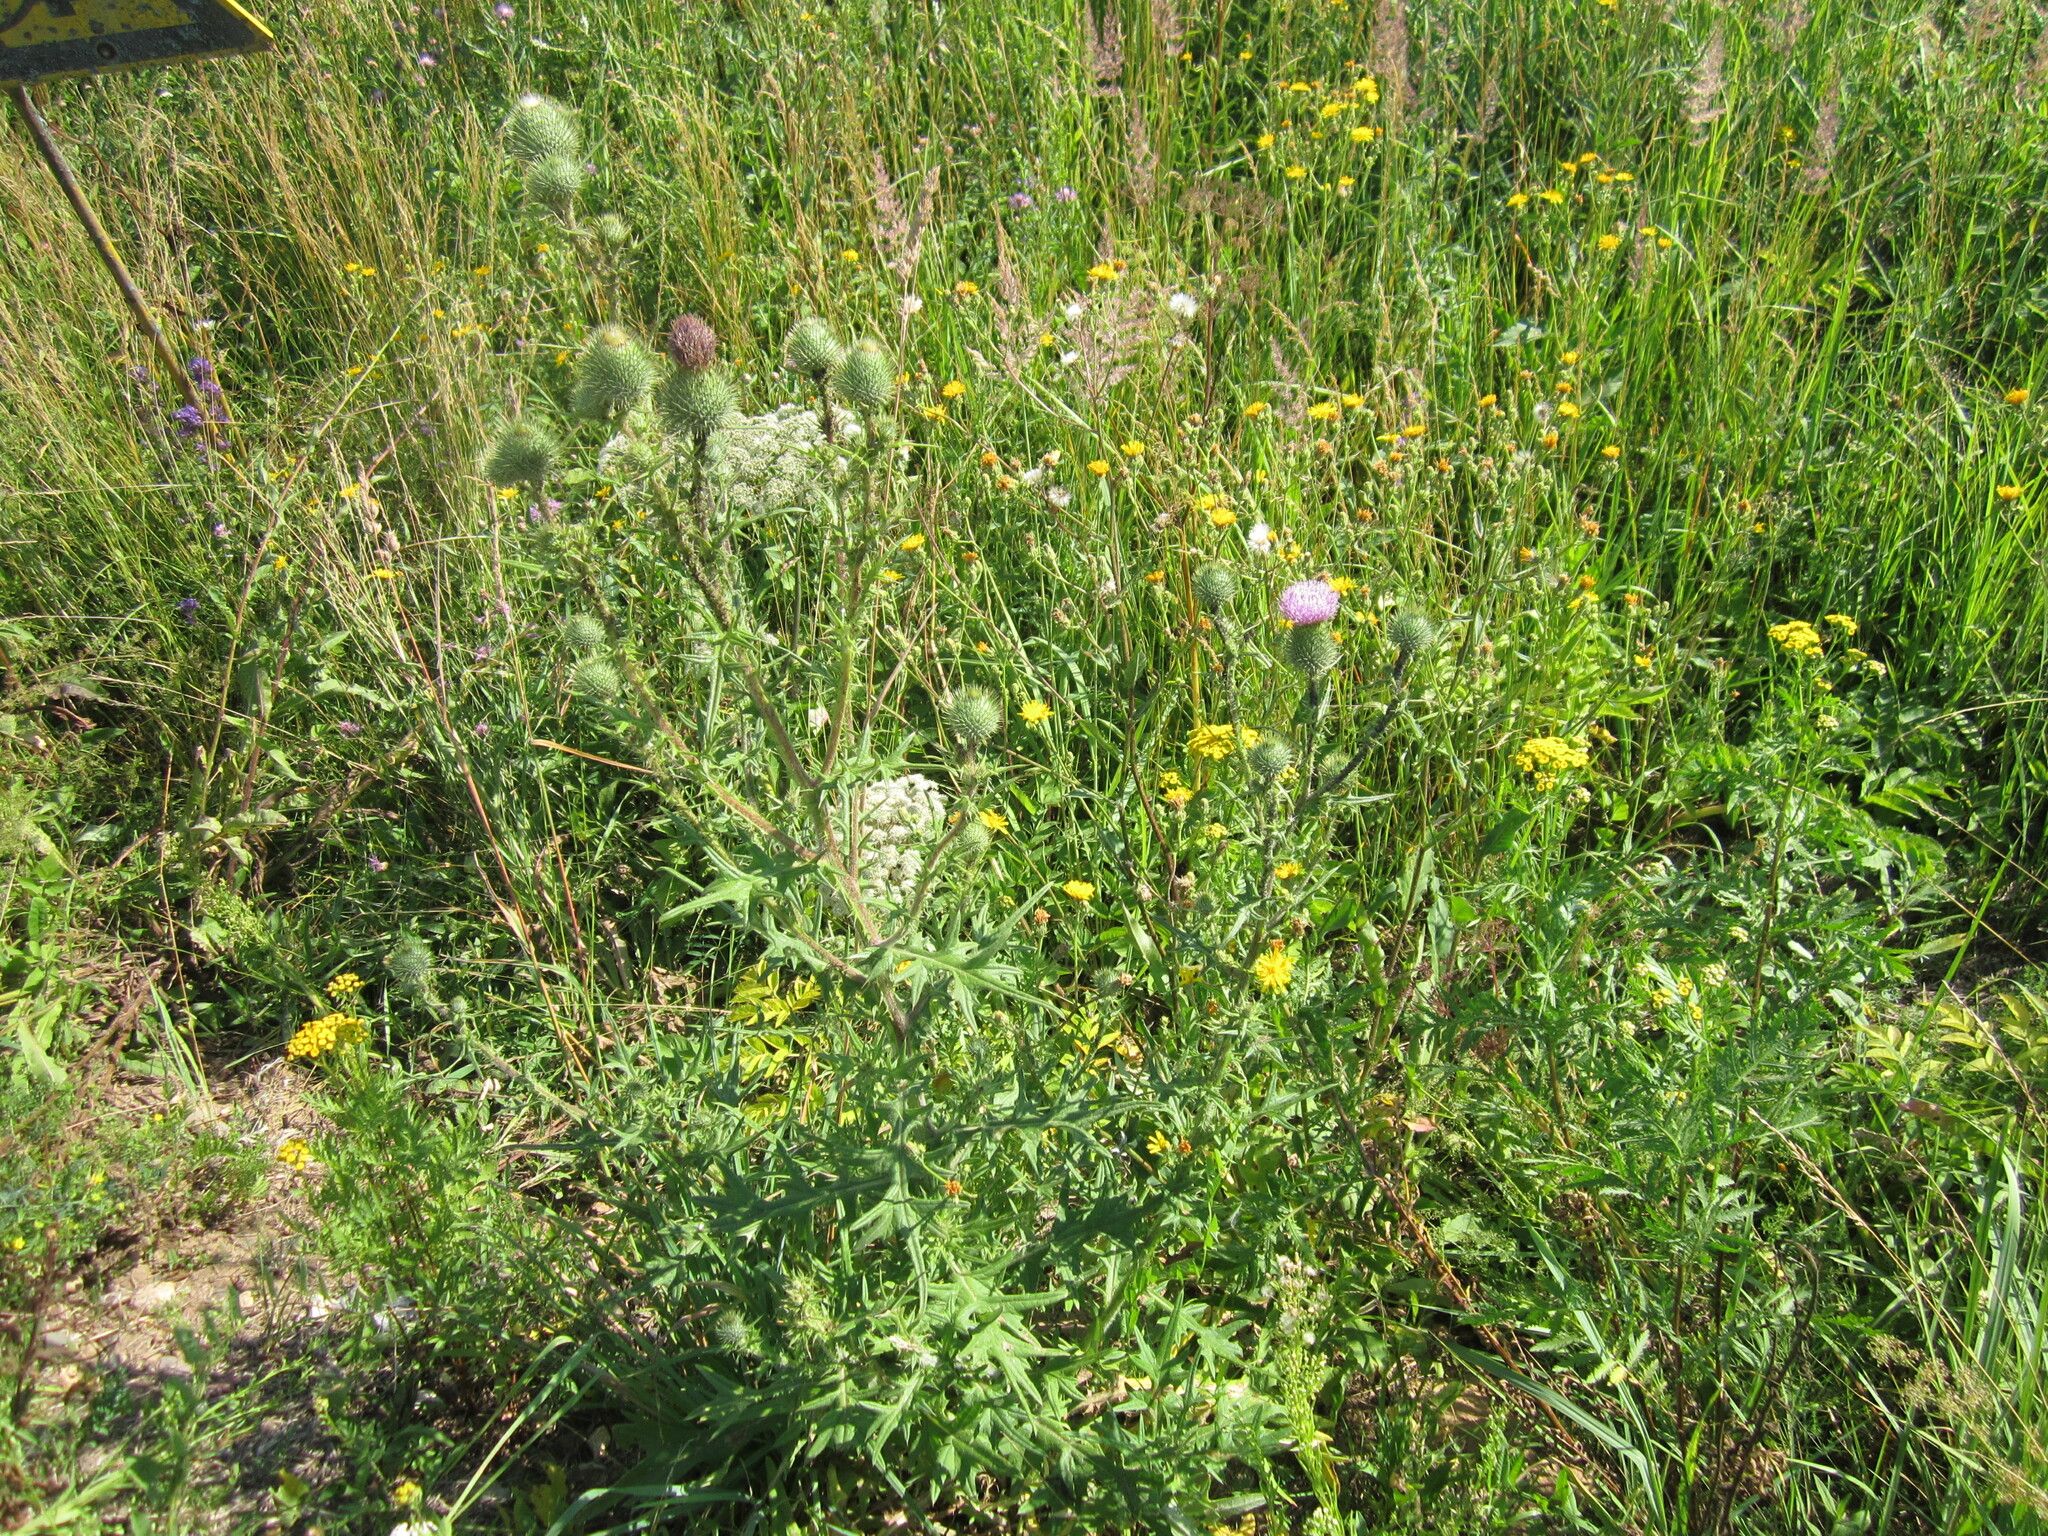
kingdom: Plantae
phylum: Tracheophyta
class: Magnoliopsida
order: Asterales
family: Asteraceae
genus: Cirsium
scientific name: Cirsium vulgare
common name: Bull thistle
